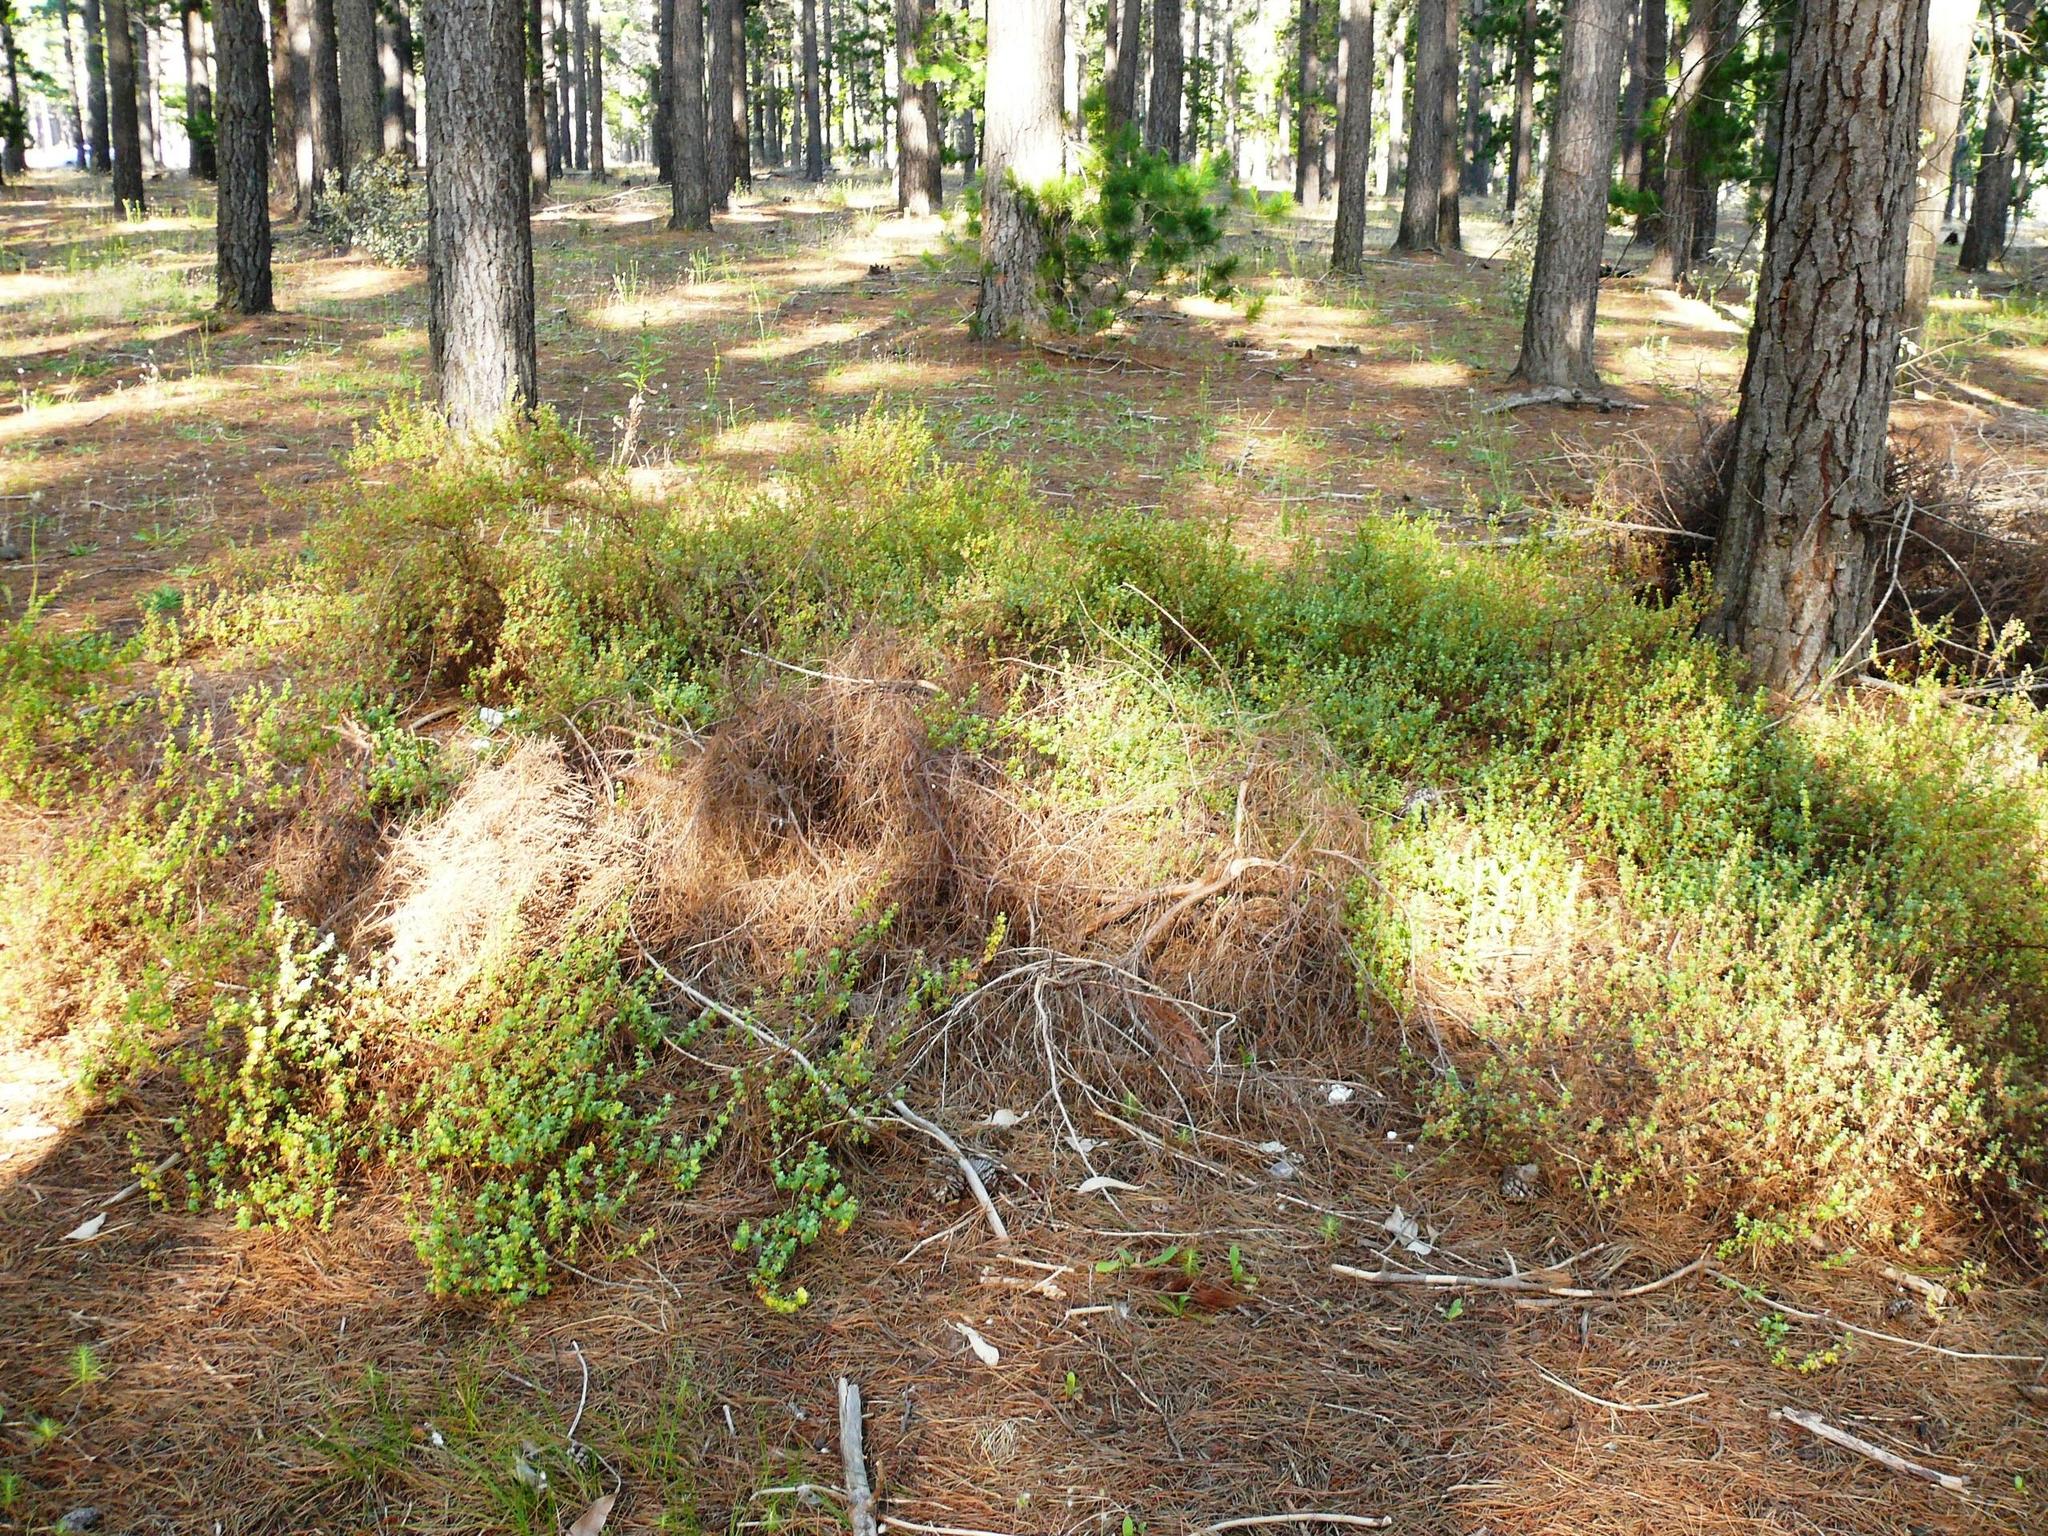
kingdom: Plantae
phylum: Tracheophyta
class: Magnoliopsida
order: Rosales
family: Rosaceae
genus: Cliffortia
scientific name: Cliffortia obcordata
